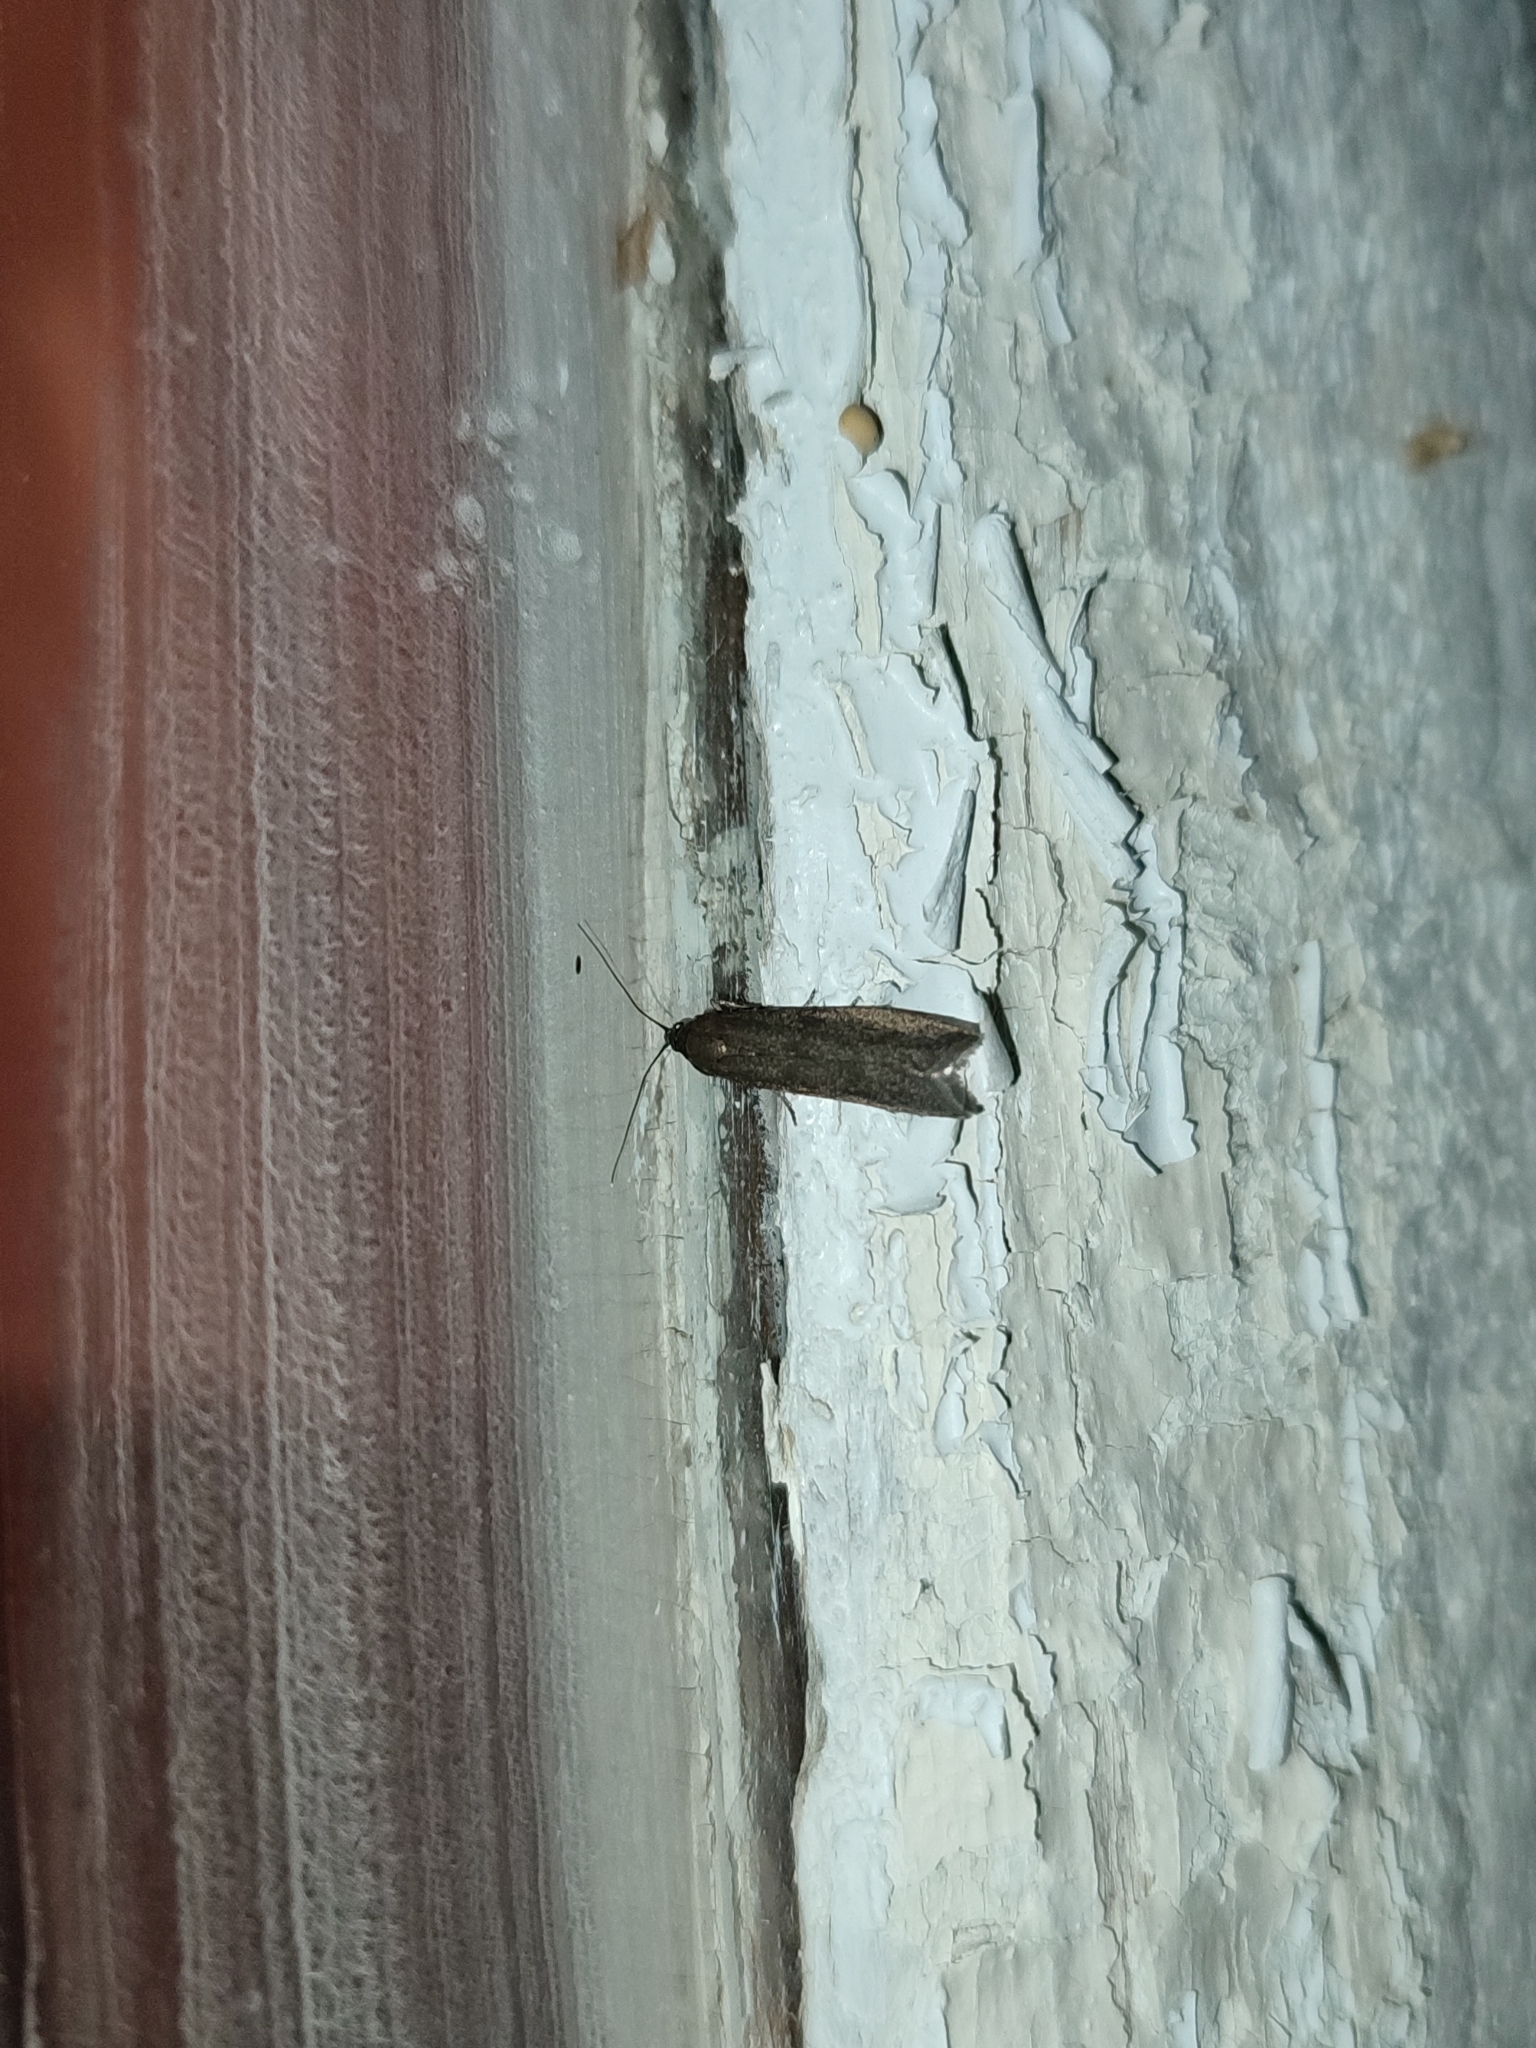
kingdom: Animalia
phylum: Arthropoda
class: Insecta
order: Lepidoptera
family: Pyralidae
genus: Myelois
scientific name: Myelois tetricella
